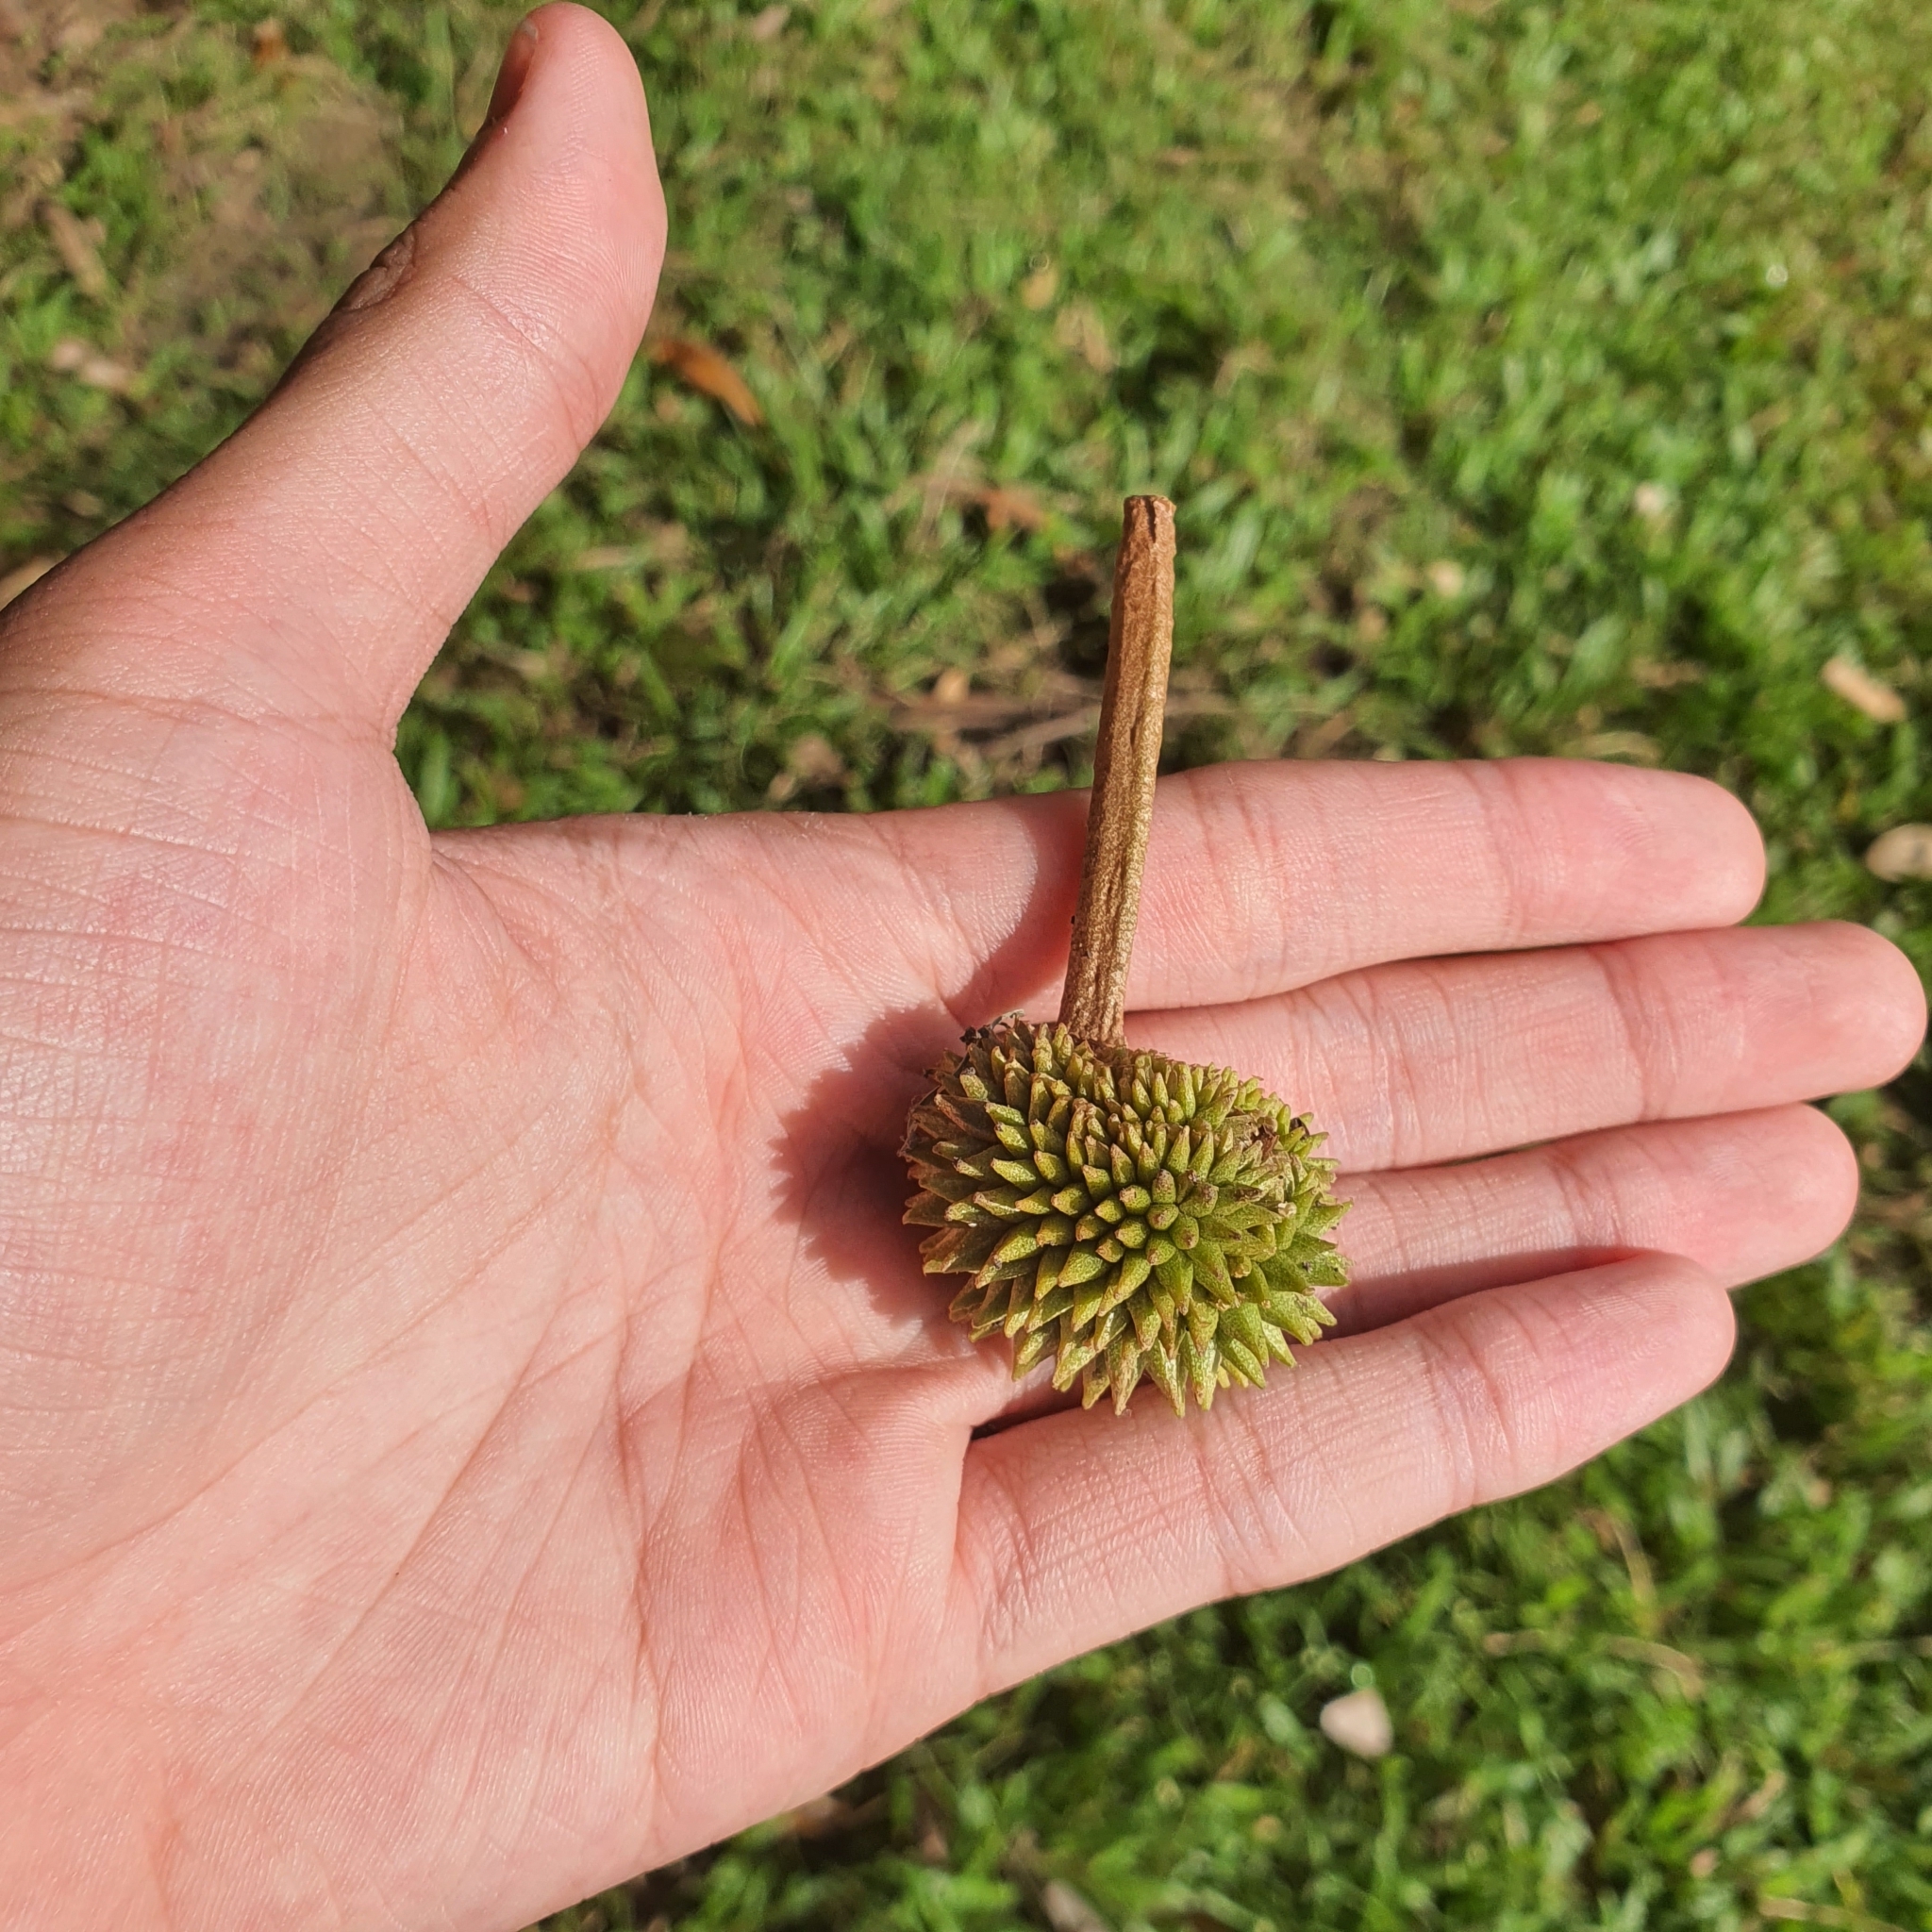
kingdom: Plantae
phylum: Tracheophyta
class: Magnoliopsida
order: Malvales
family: Malvaceae
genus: Durio
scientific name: Durio zibethinus
